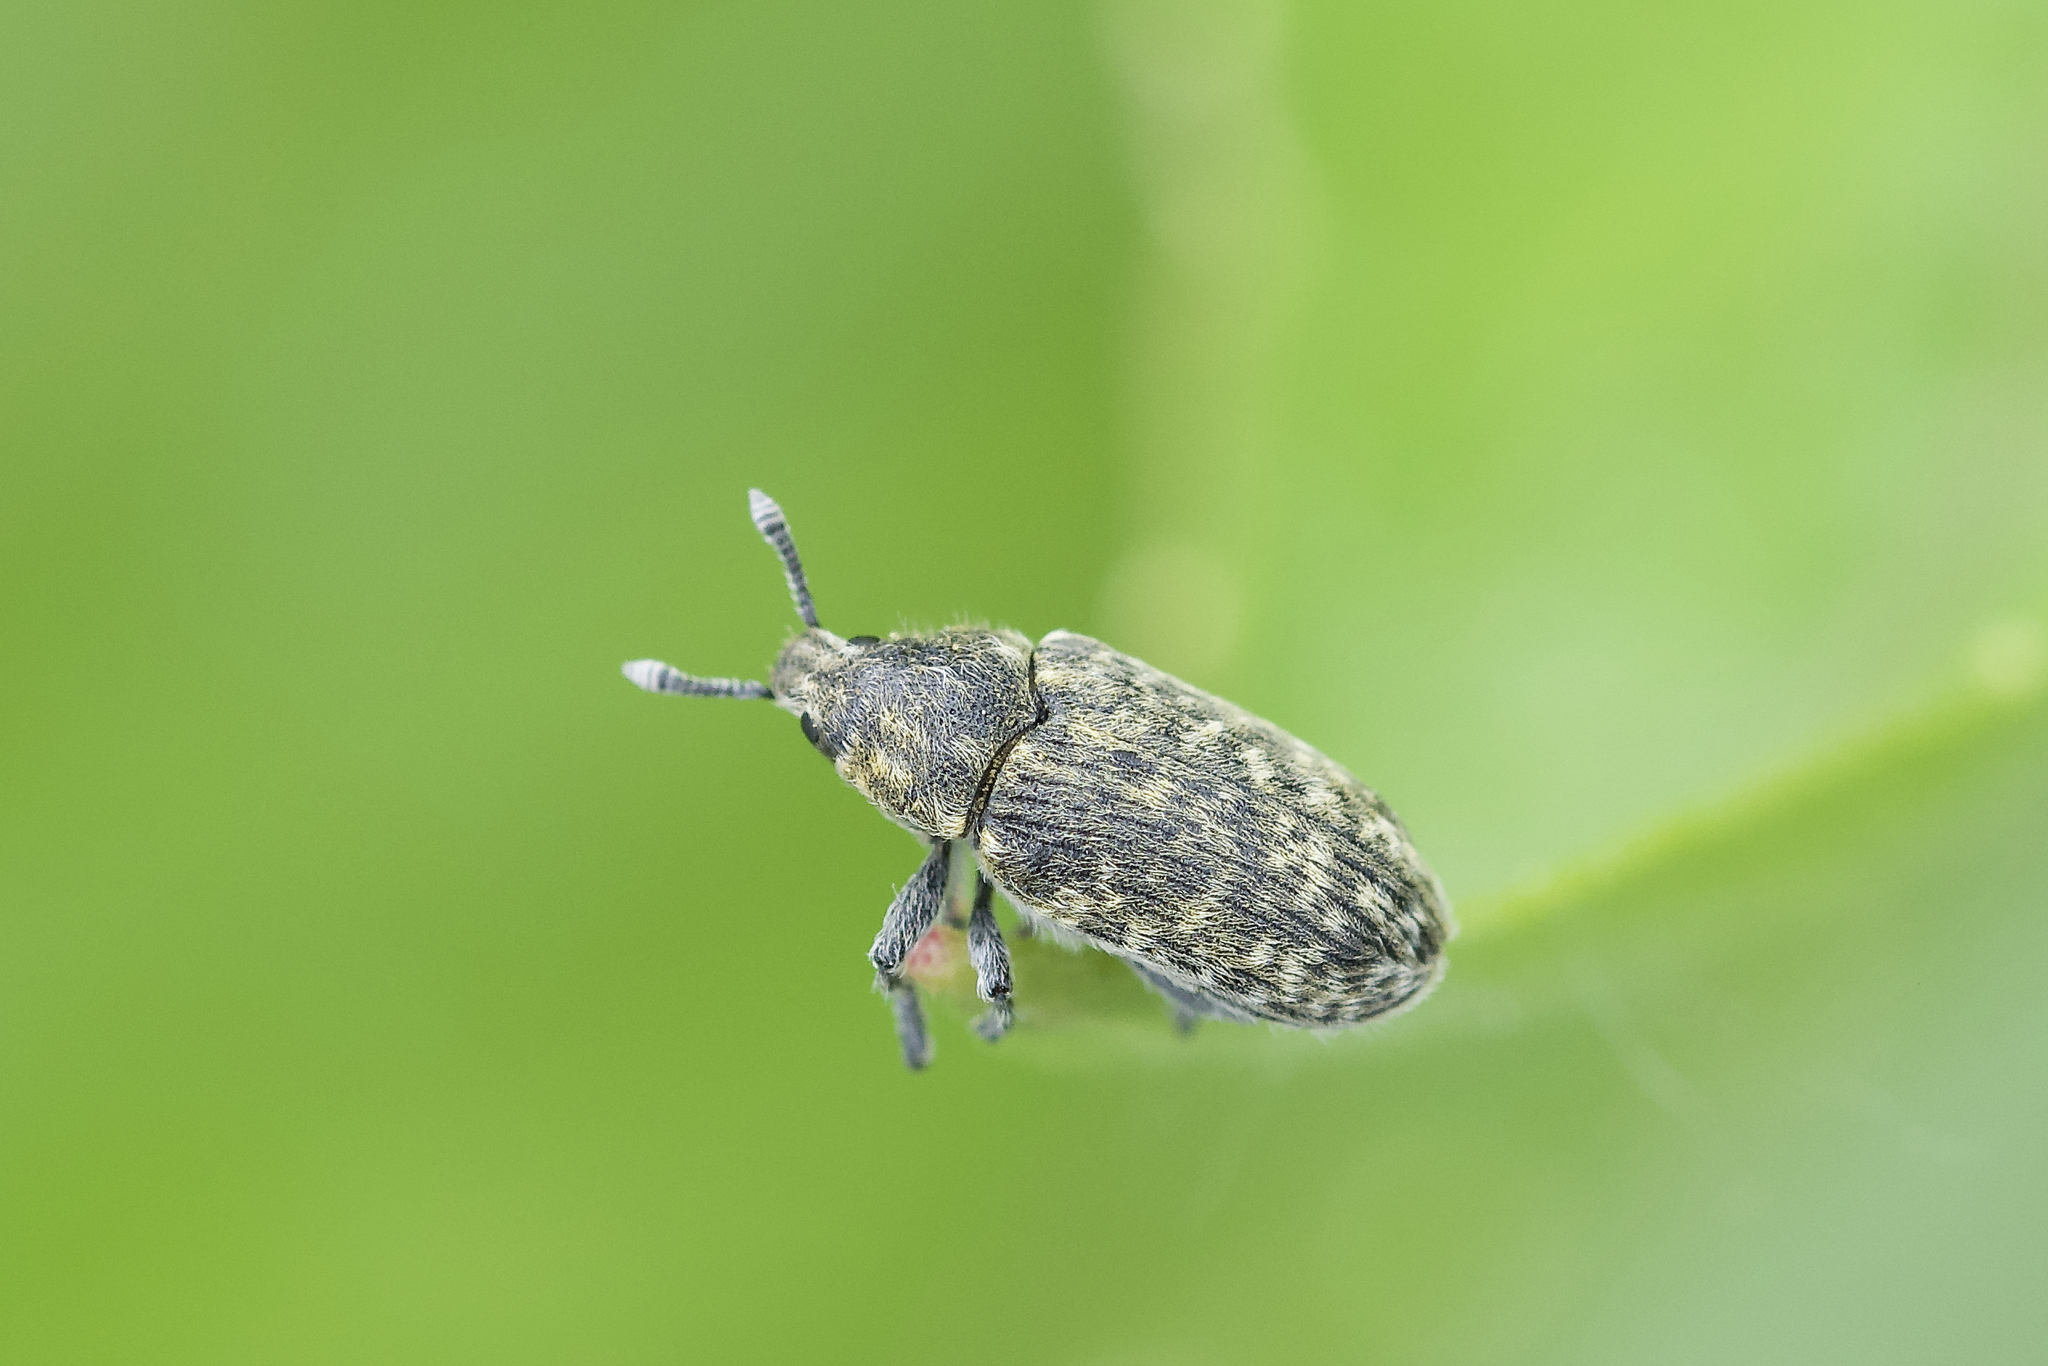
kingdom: Animalia
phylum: Arthropoda
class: Insecta
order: Coleoptera
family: Curculionidae
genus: Rhinocyllus
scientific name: Rhinocyllus conicus
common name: Weevil
